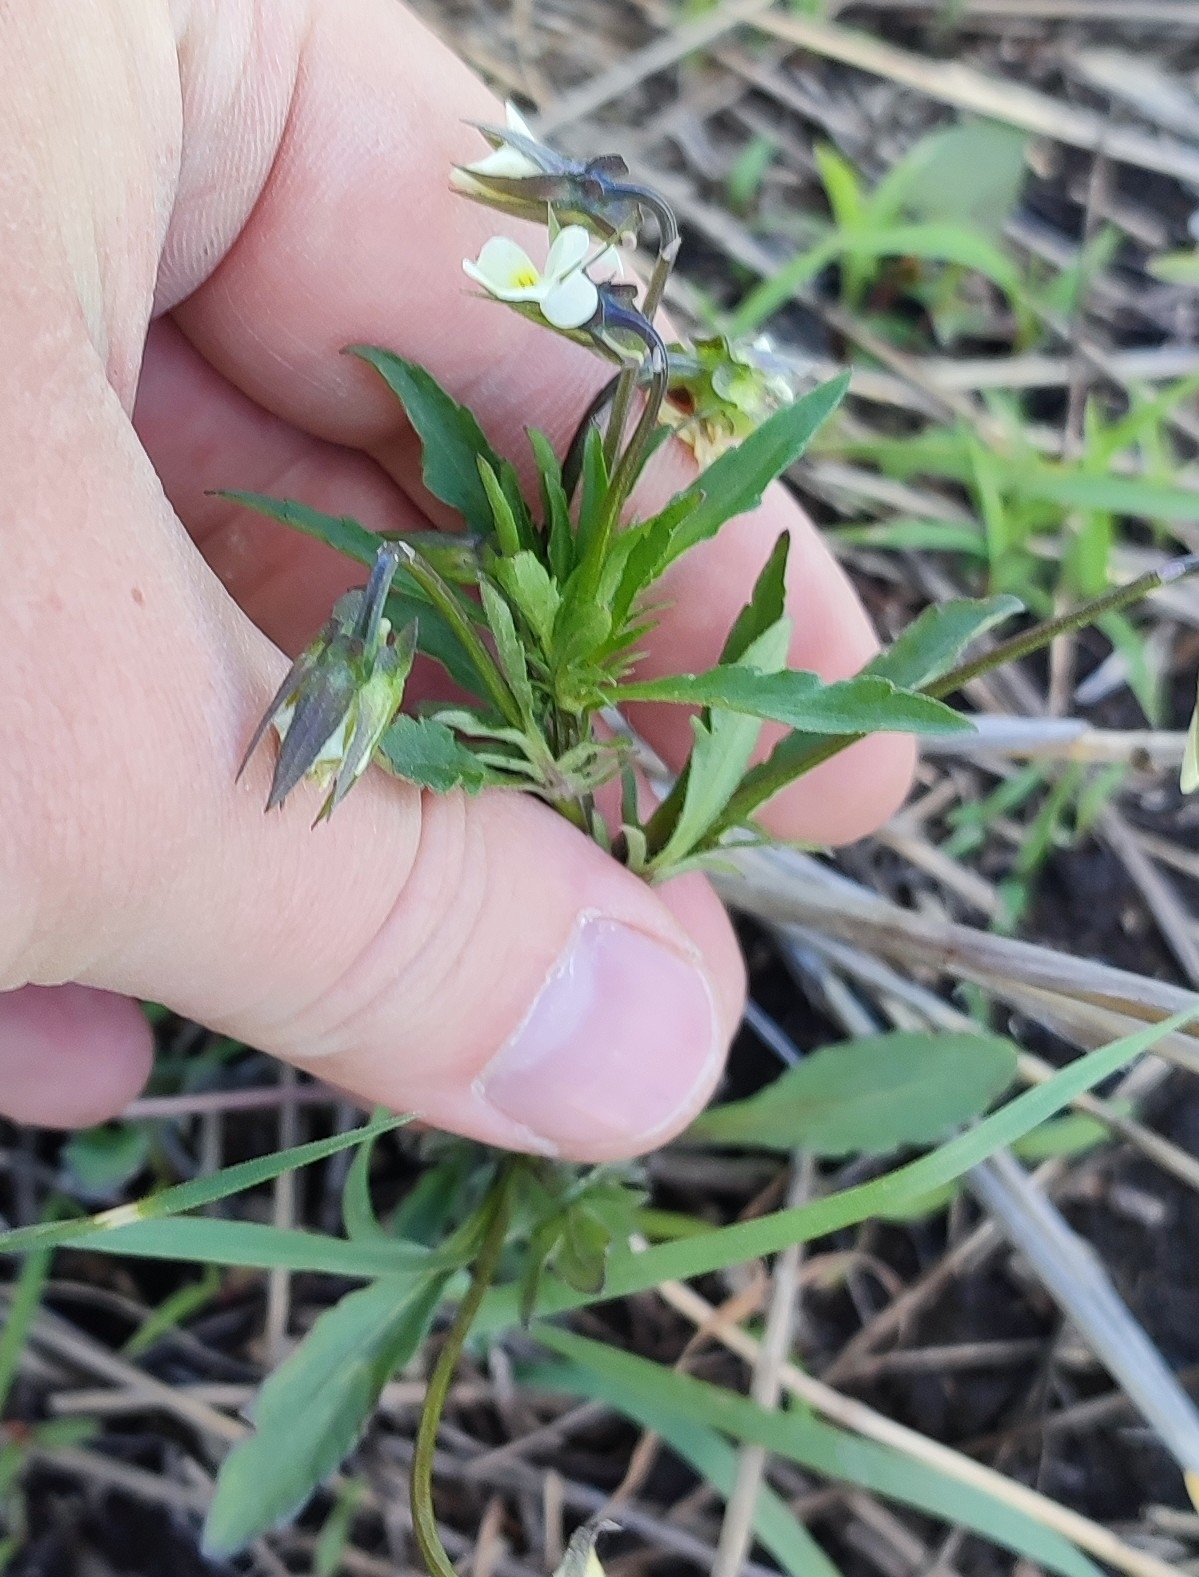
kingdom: Plantae
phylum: Tracheophyta
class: Magnoliopsida
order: Malpighiales
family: Violaceae
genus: Viola
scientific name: Viola arvensis
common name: Field pansy
